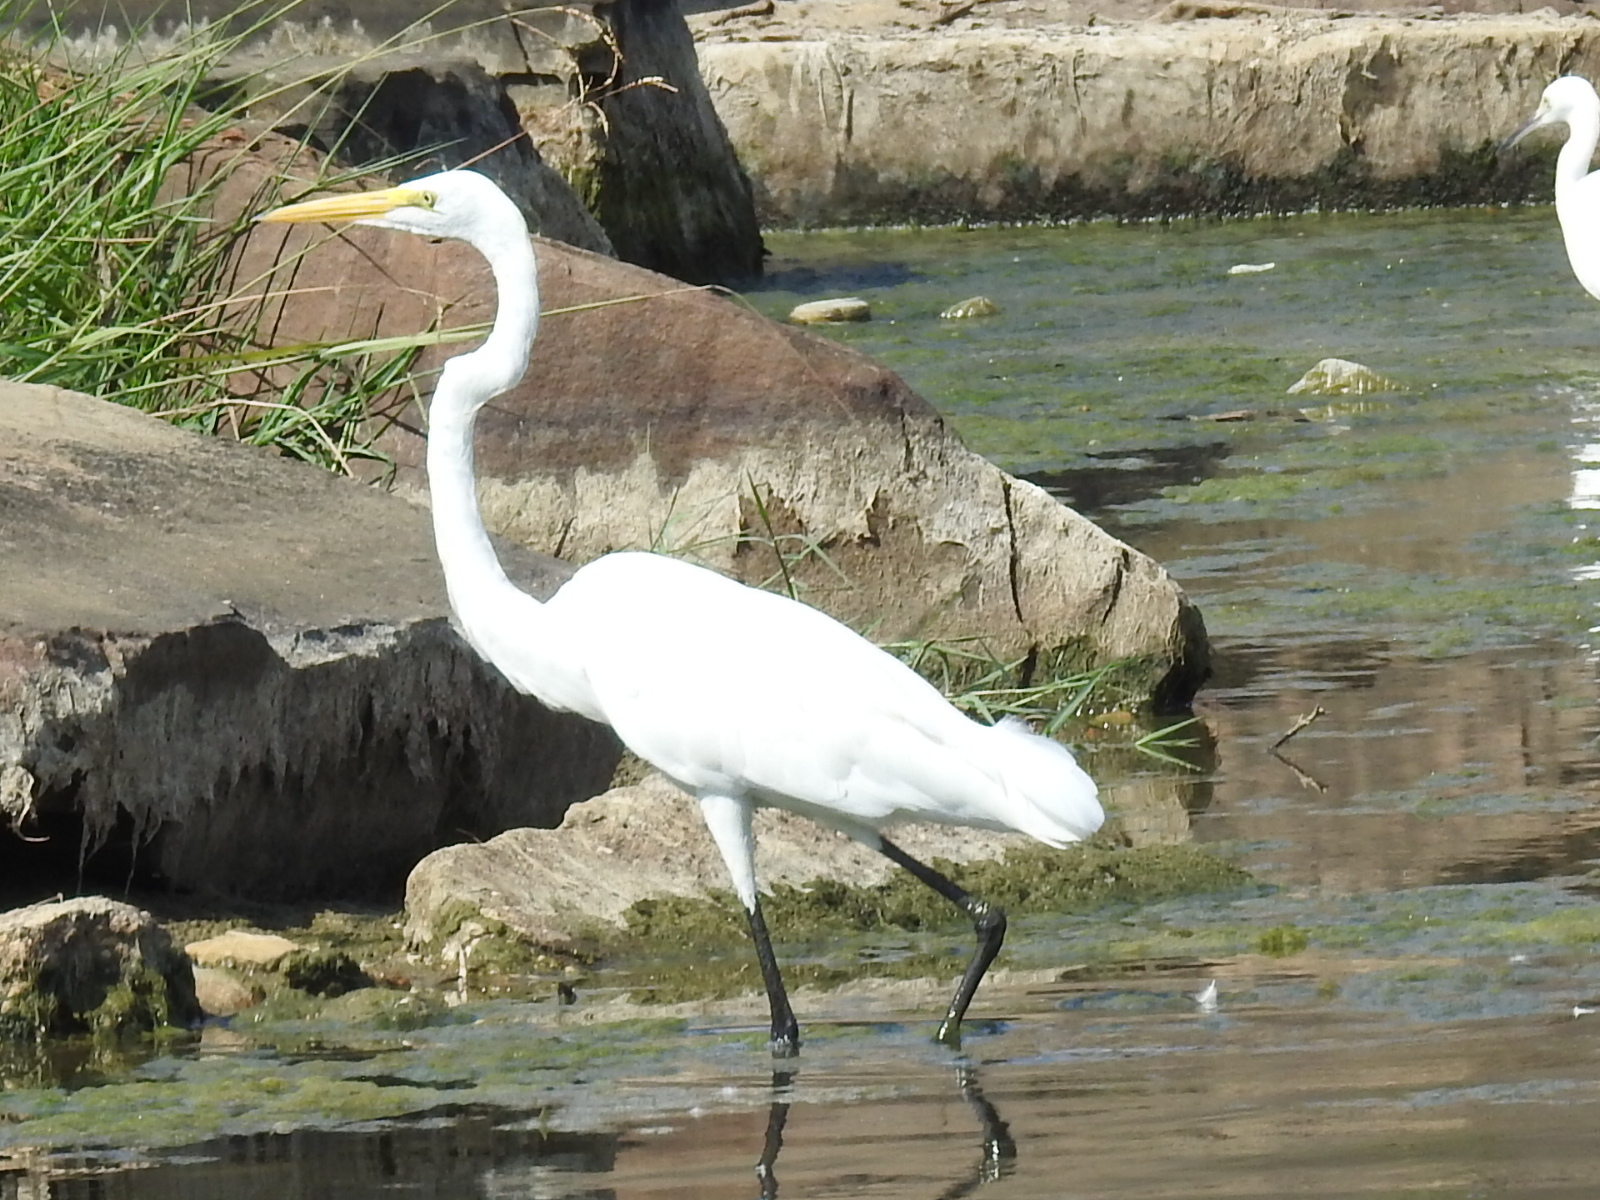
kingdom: Animalia
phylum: Chordata
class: Aves
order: Pelecaniformes
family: Ardeidae
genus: Ardea
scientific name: Ardea alba
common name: Great egret
